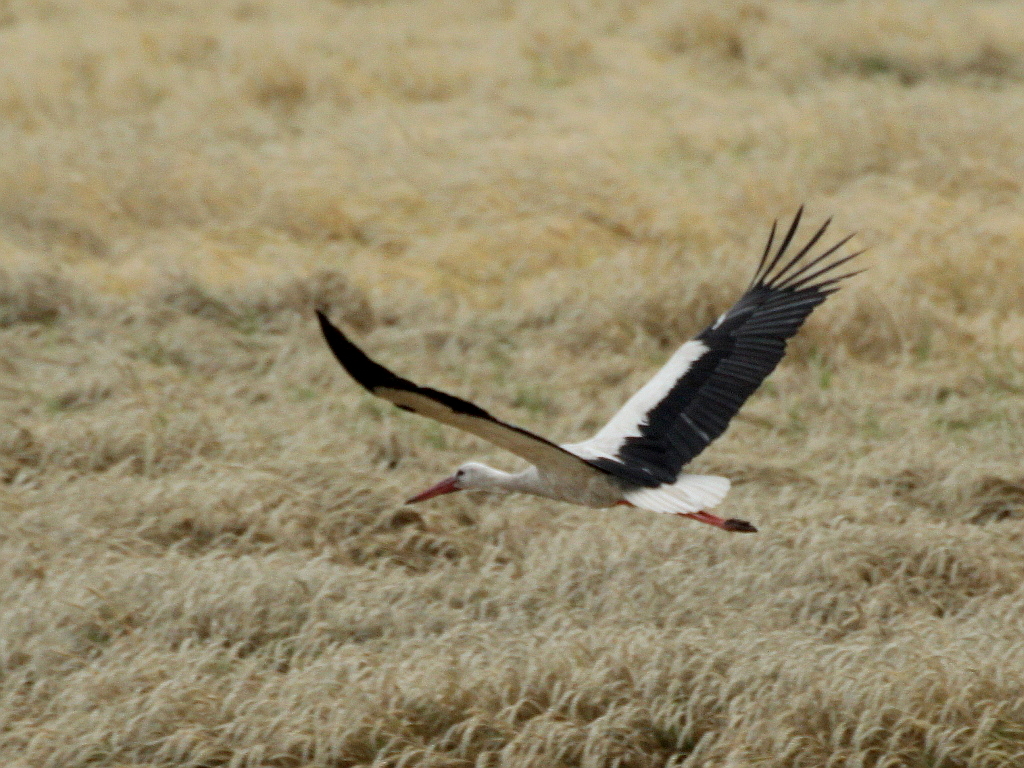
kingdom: Animalia
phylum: Chordata
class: Aves
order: Ciconiiformes
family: Ciconiidae
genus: Ciconia
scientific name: Ciconia ciconia
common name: White stork
